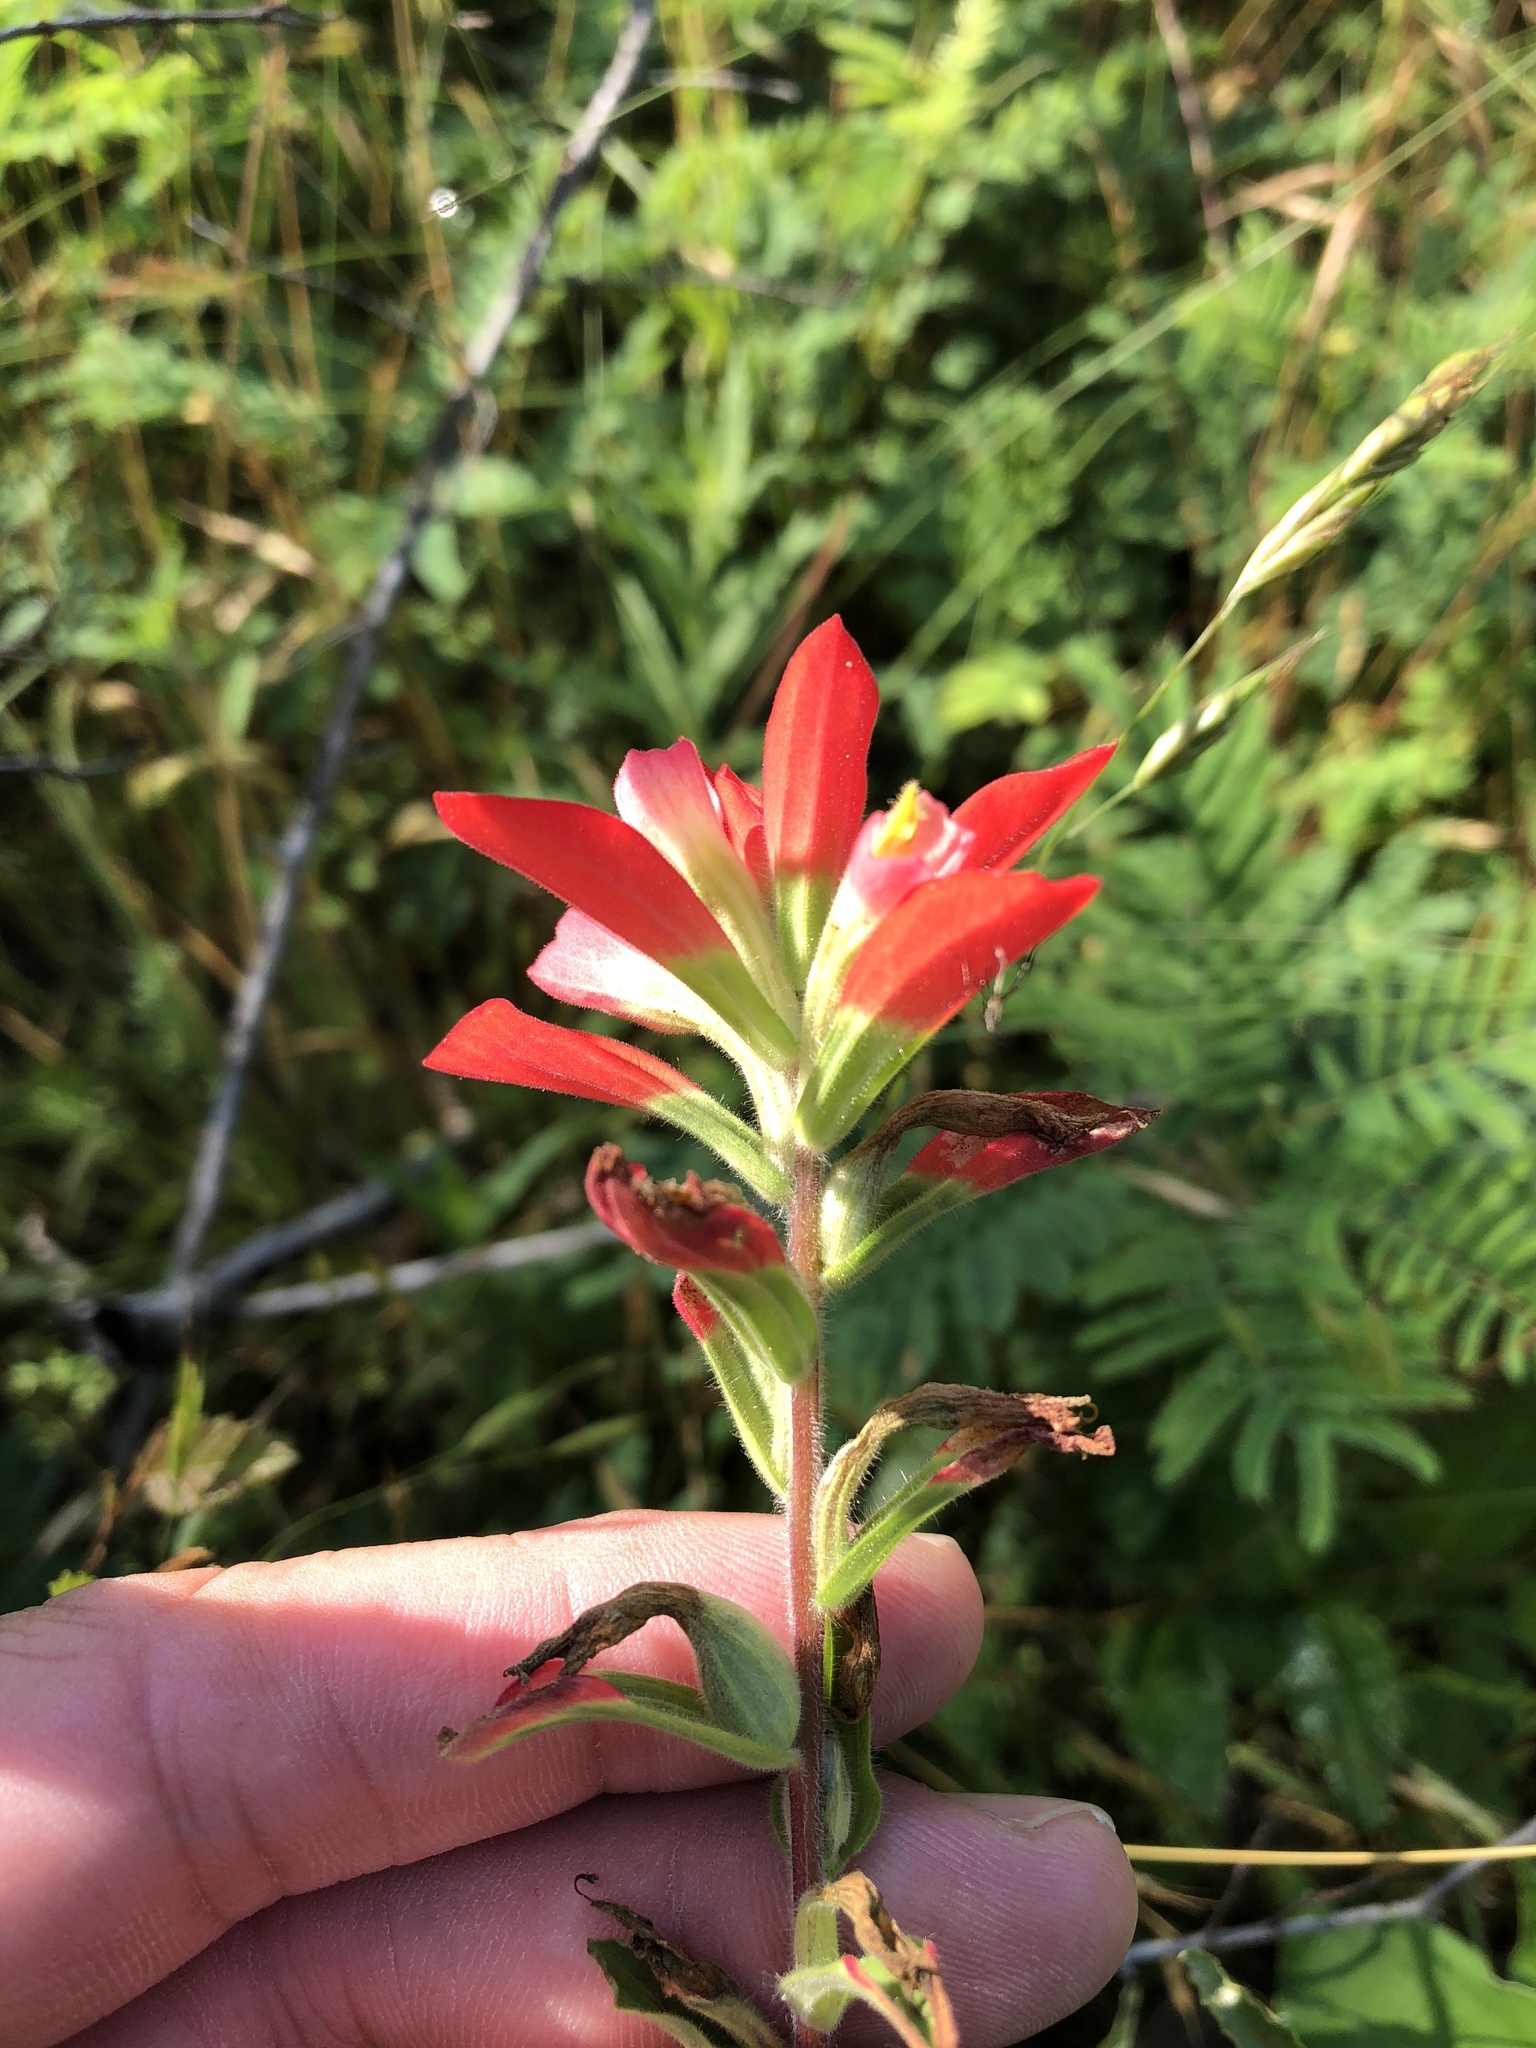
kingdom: Plantae
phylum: Tracheophyta
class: Magnoliopsida
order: Lamiales
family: Orobanchaceae
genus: Castilleja
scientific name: Castilleja indivisa
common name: Texas paintbrush
